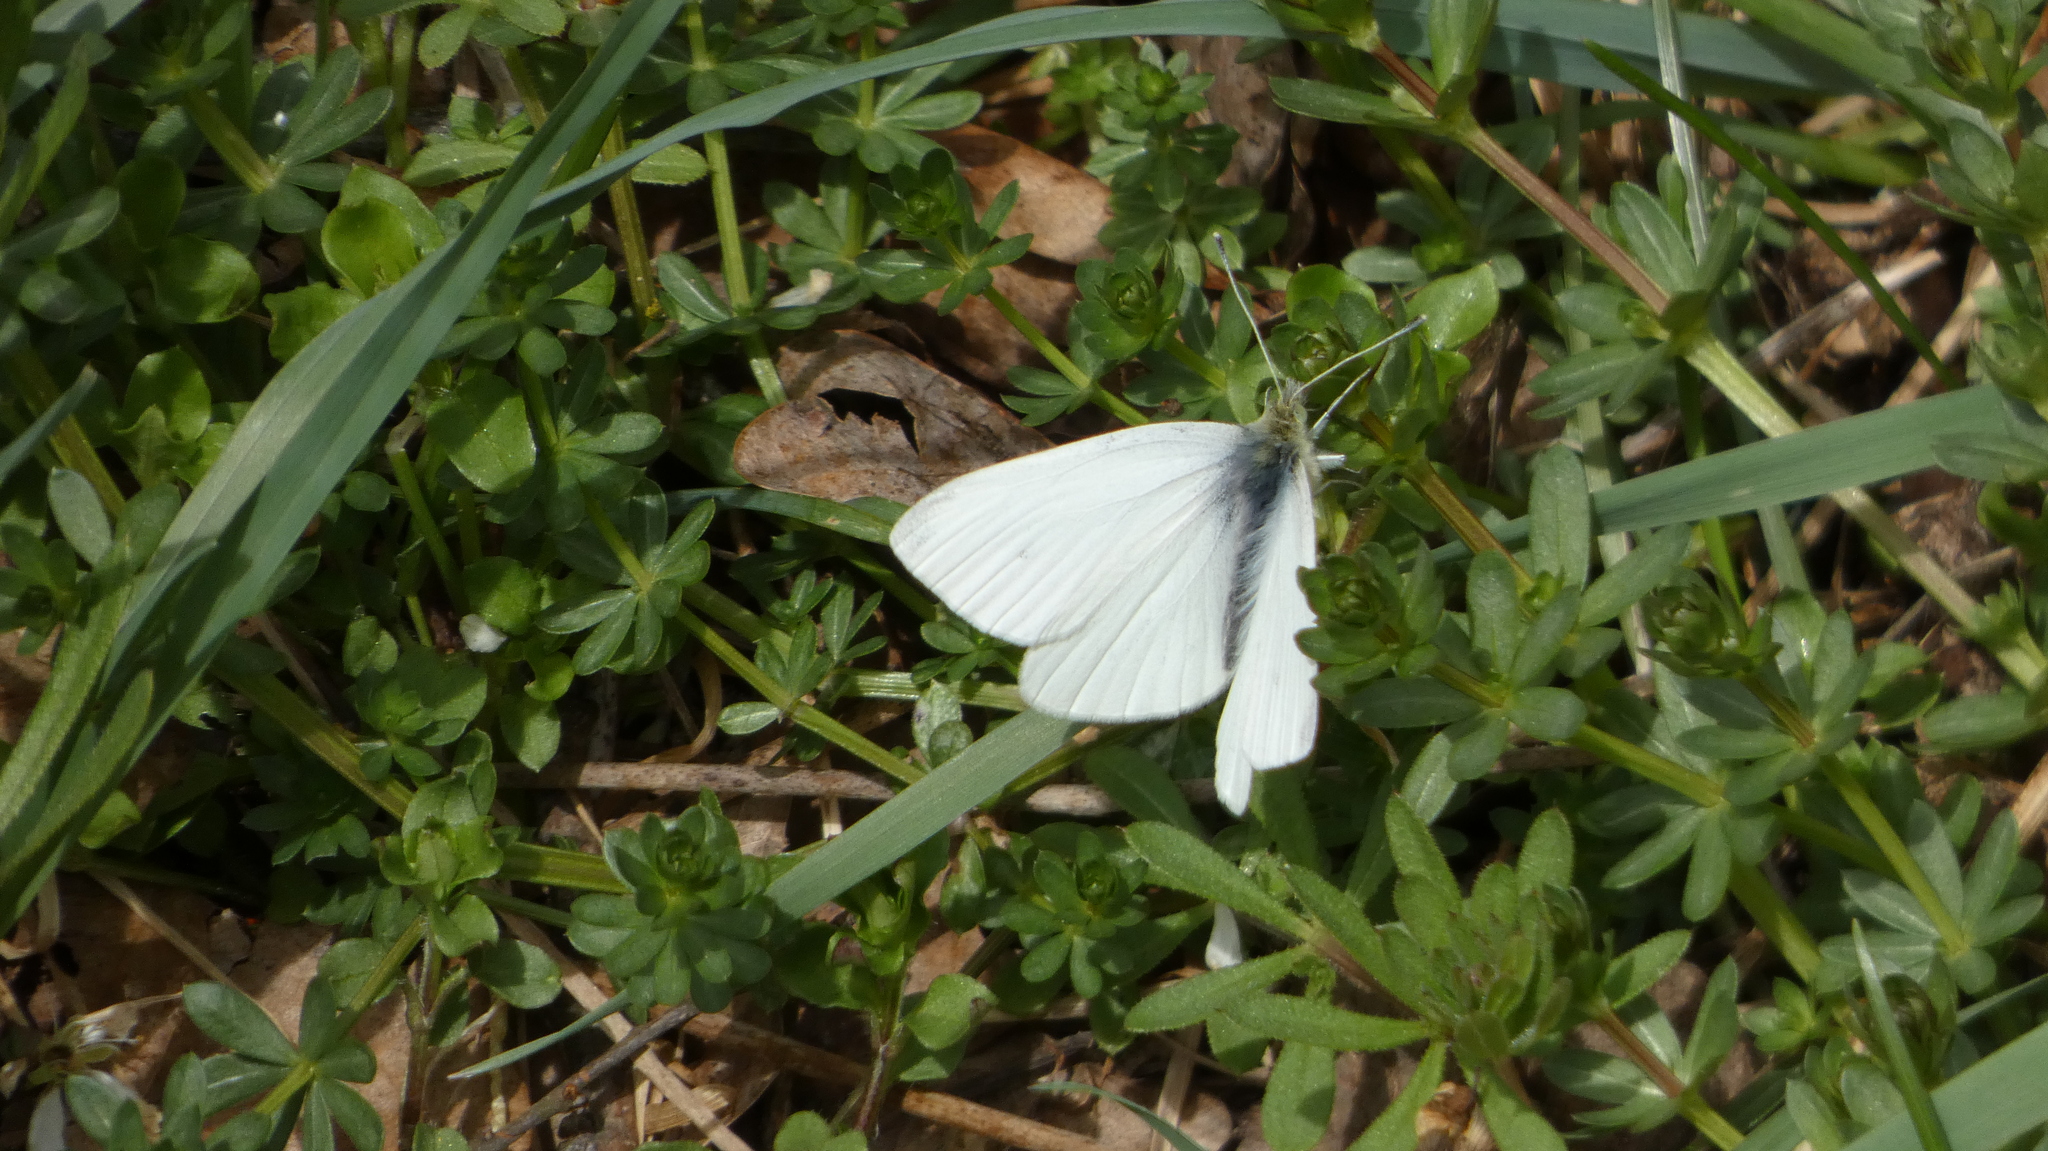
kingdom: Animalia
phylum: Arthropoda
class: Insecta
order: Lepidoptera
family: Pieridae
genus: Pieris
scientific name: Pieris rapae
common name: Small white
